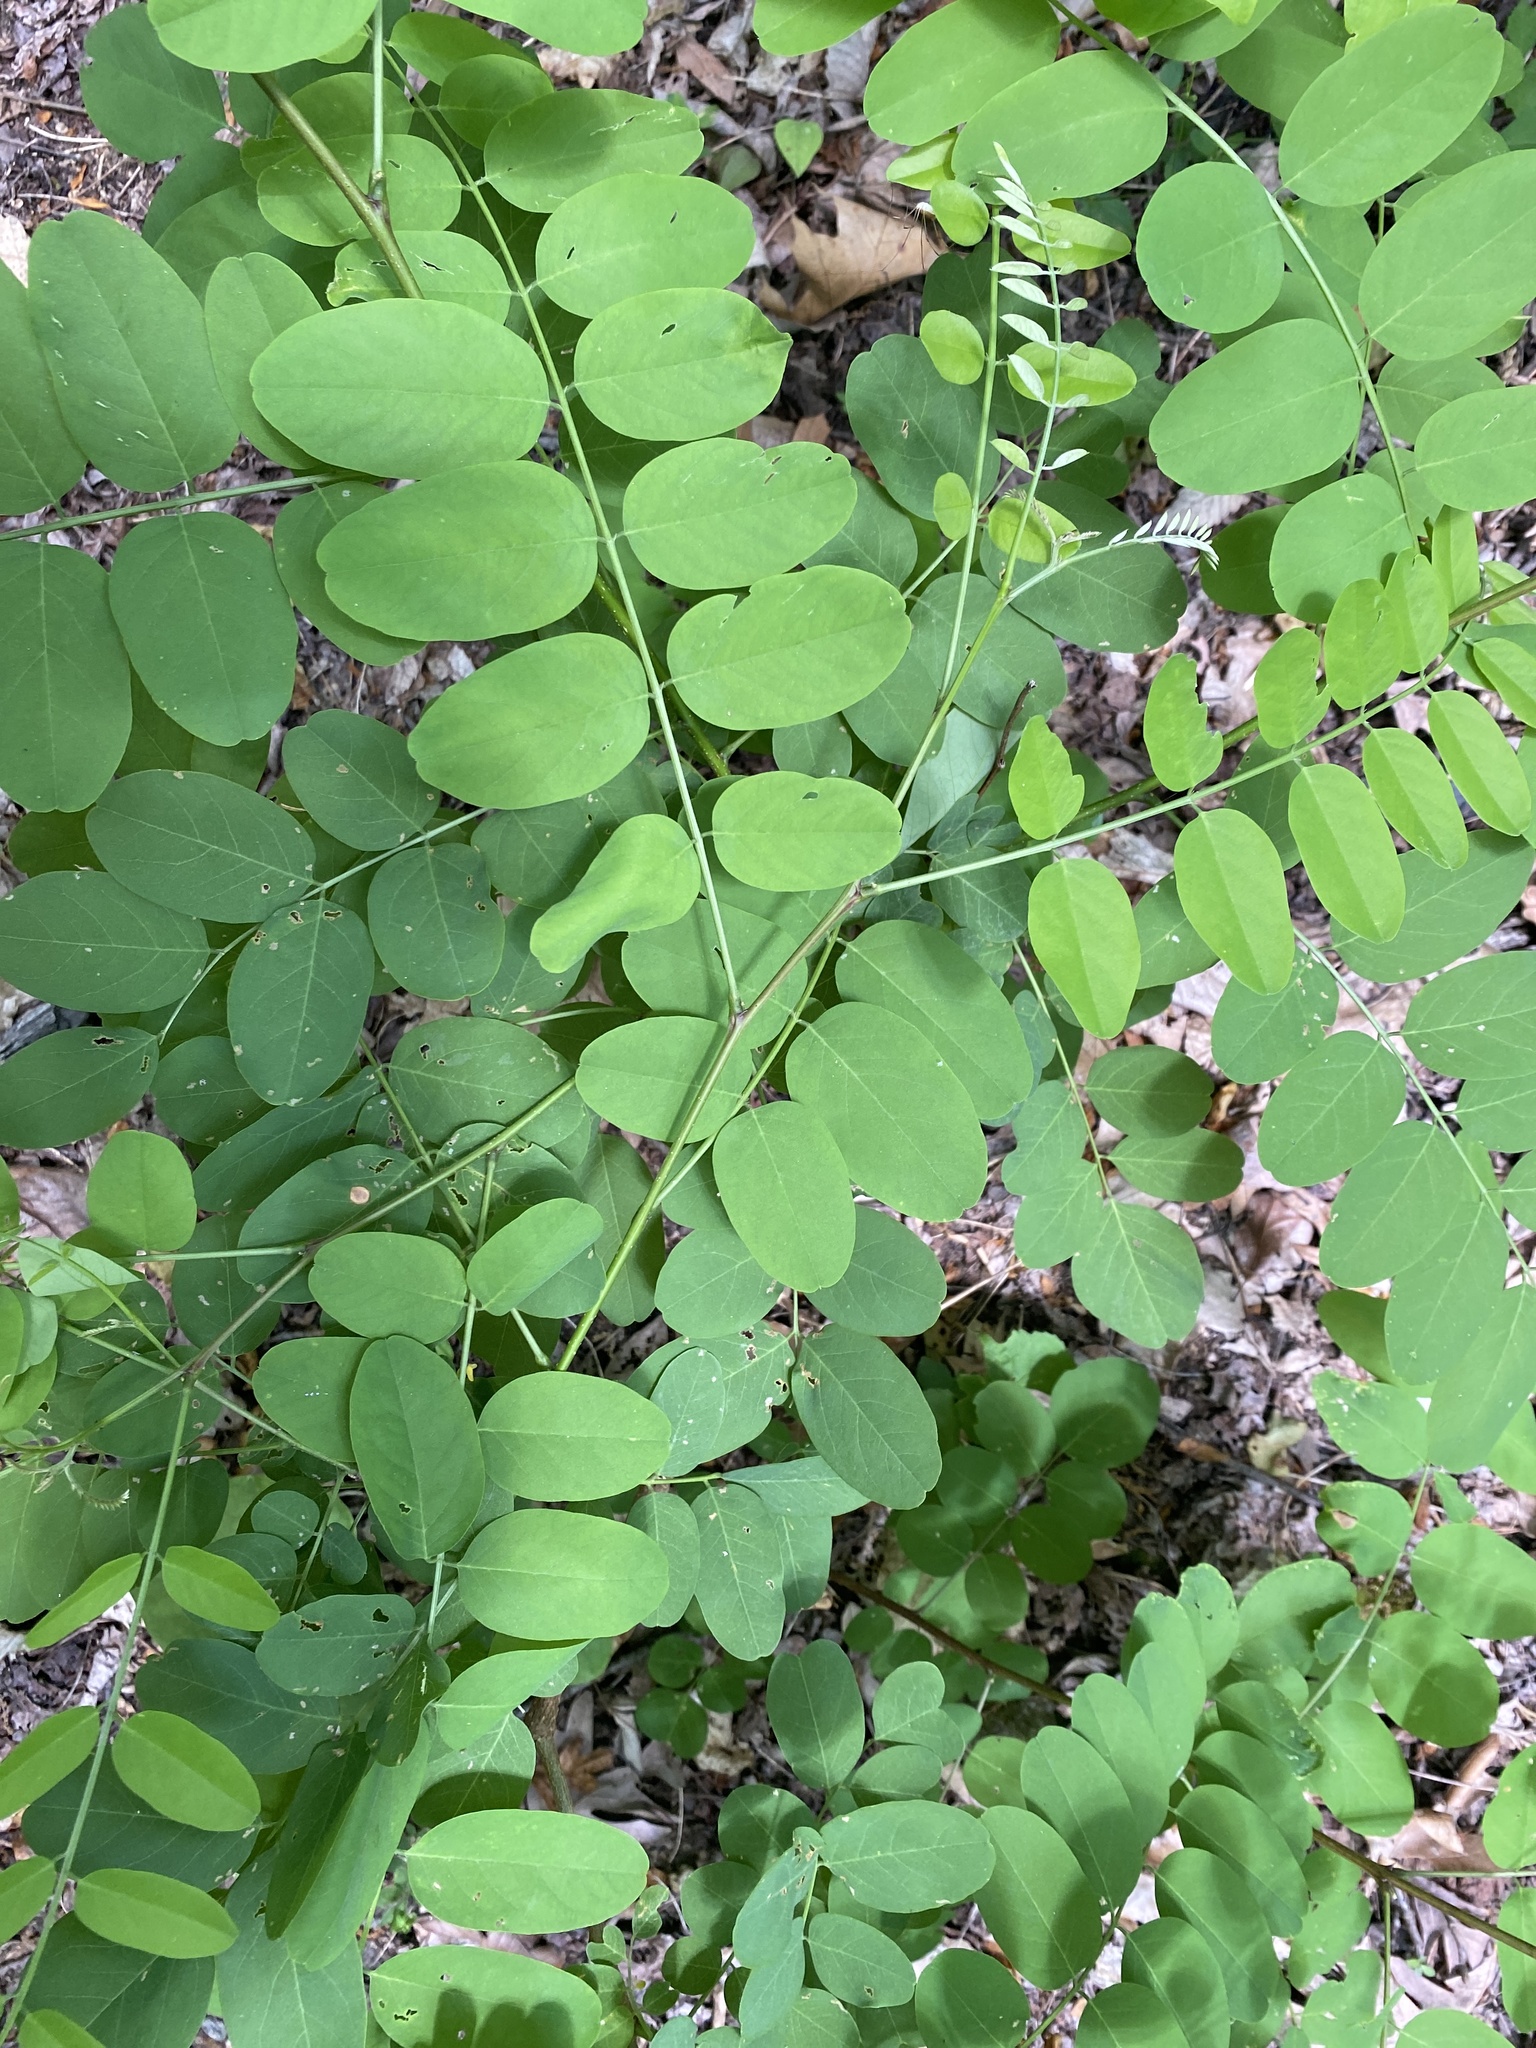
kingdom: Plantae
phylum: Tracheophyta
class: Magnoliopsida
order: Fabales
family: Fabaceae
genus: Robinia
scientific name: Robinia pseudoacacia
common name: Black locust
